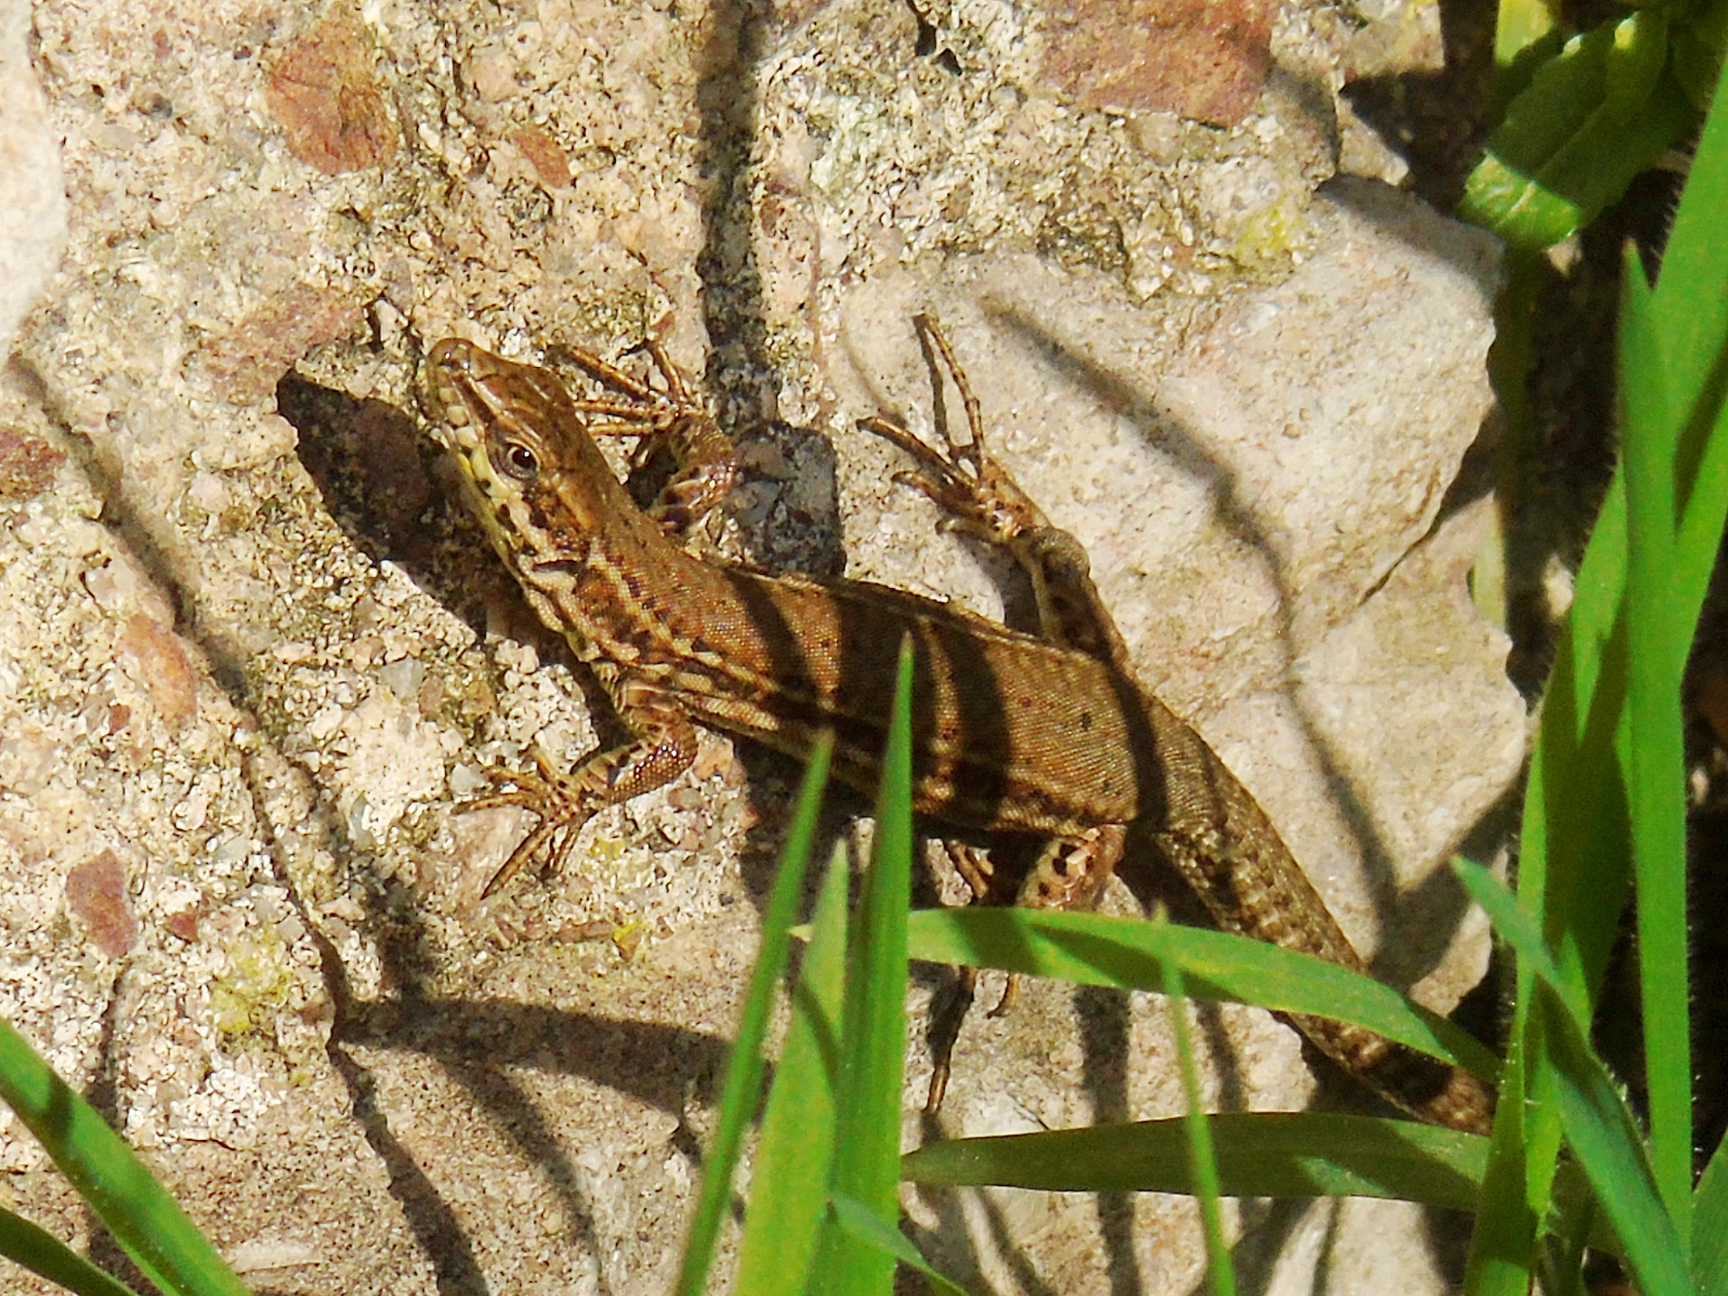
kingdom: Animalia
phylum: Chordata
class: Squamata
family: Lacertidae
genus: Podarcis
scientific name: Podarcis liolepis
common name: Catalonian wall lizard
